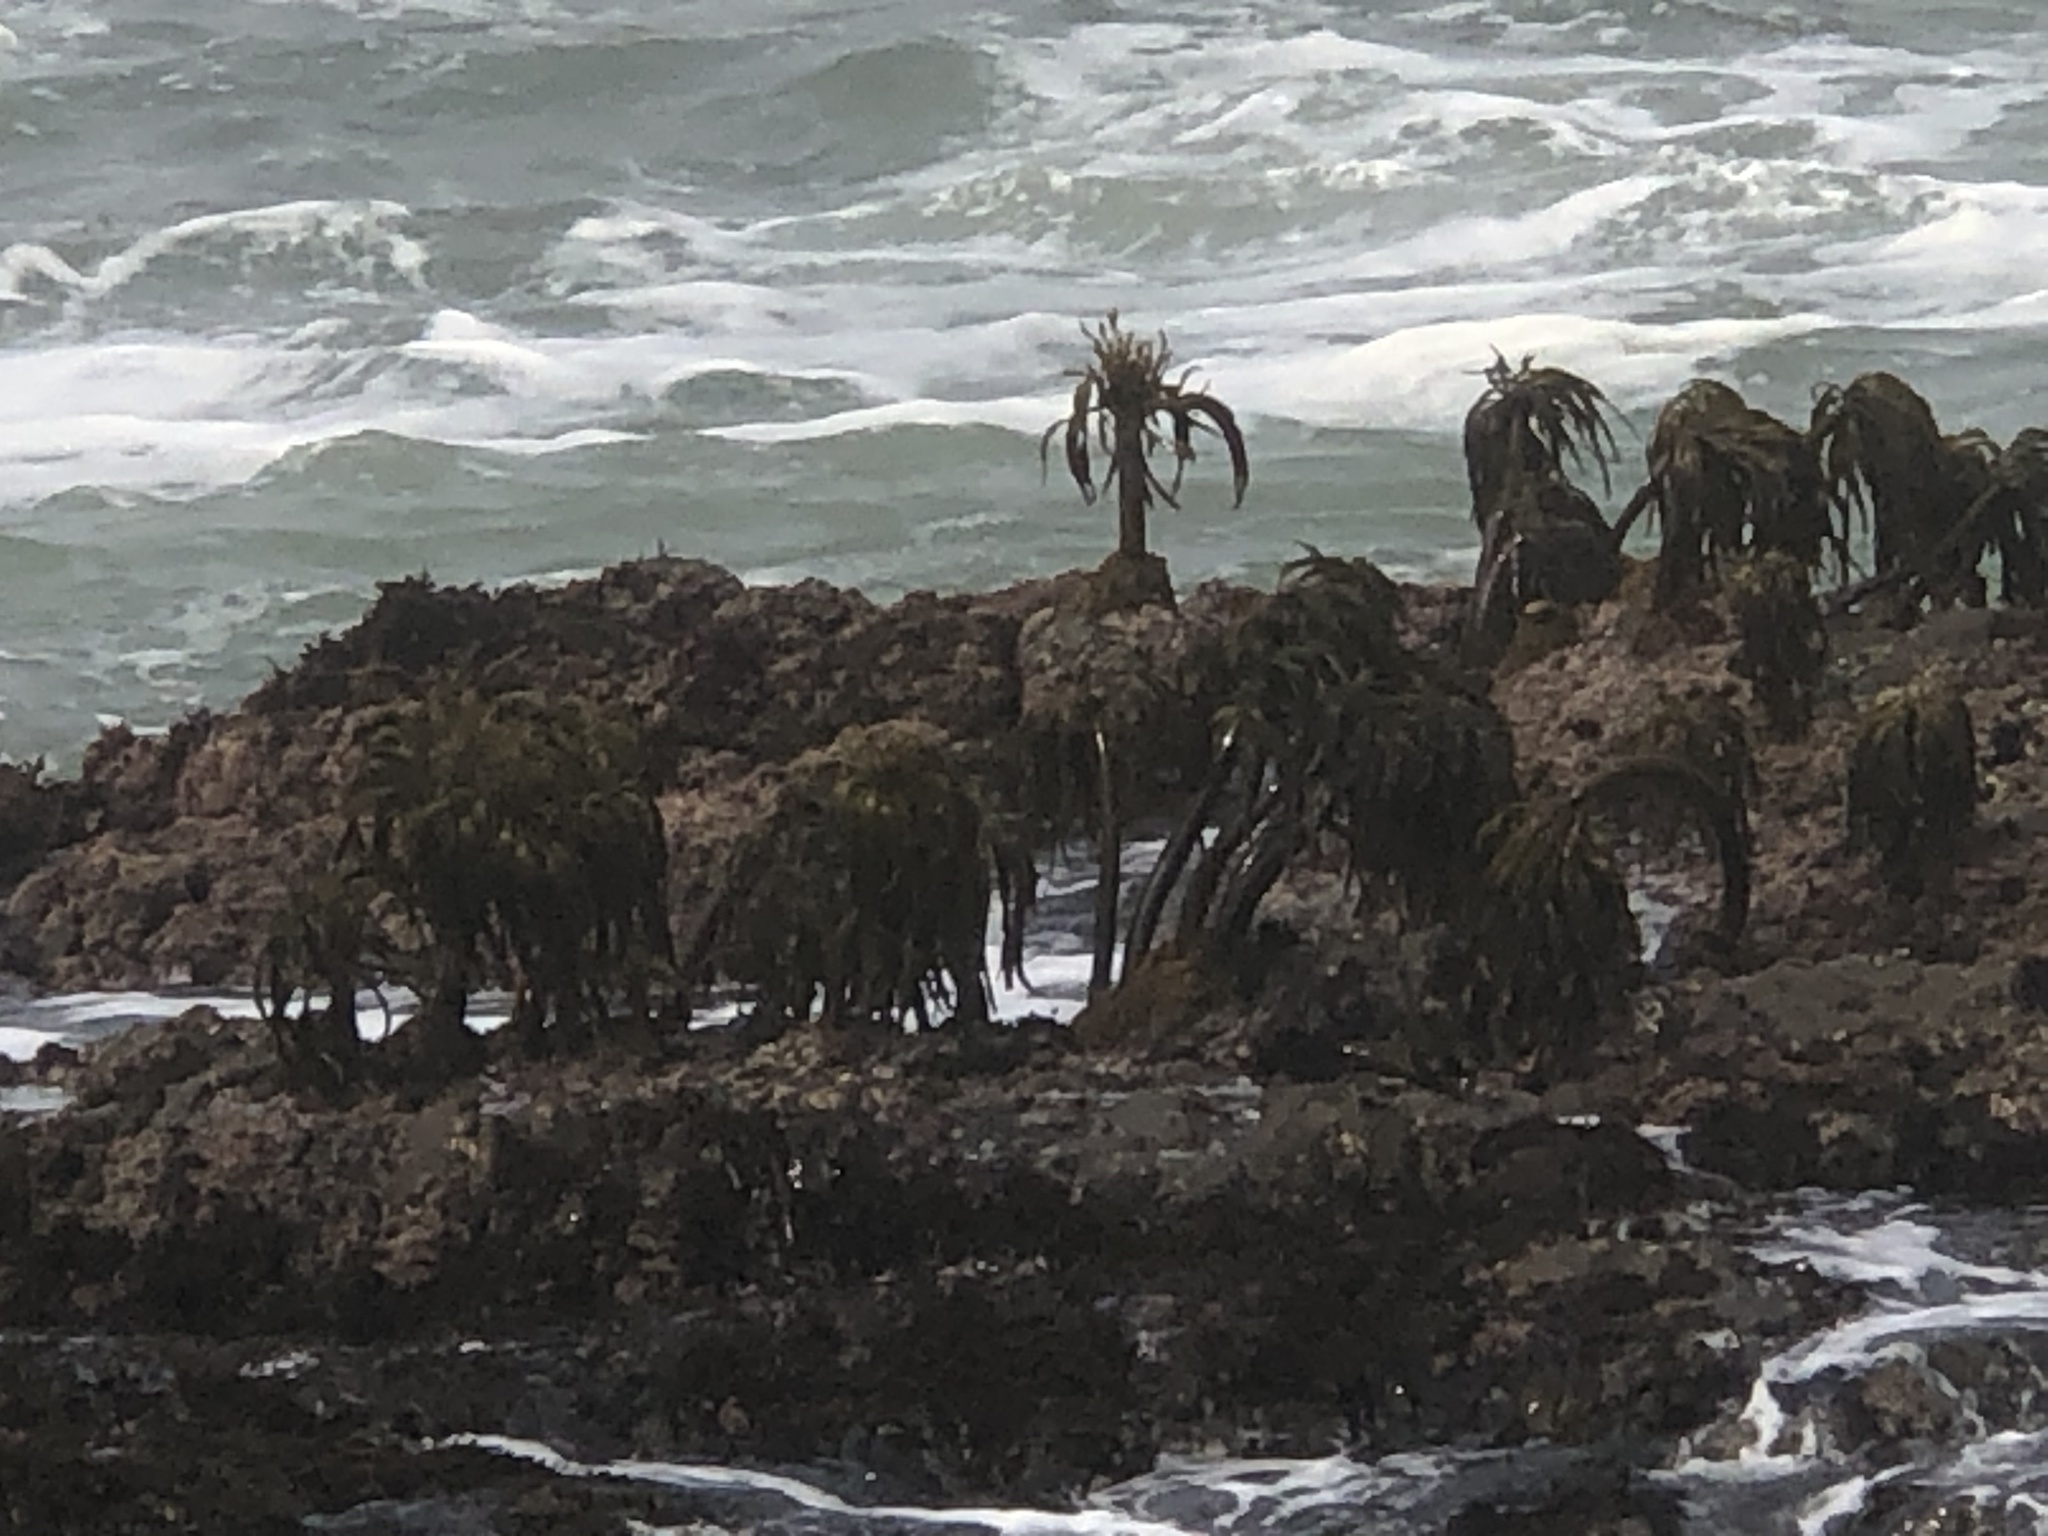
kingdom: Chromista
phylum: Ochrophyta
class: Phaeophyceae
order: Laminariales
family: Laminariaceae
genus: Postelsia
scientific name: Postelsia palmiformis
